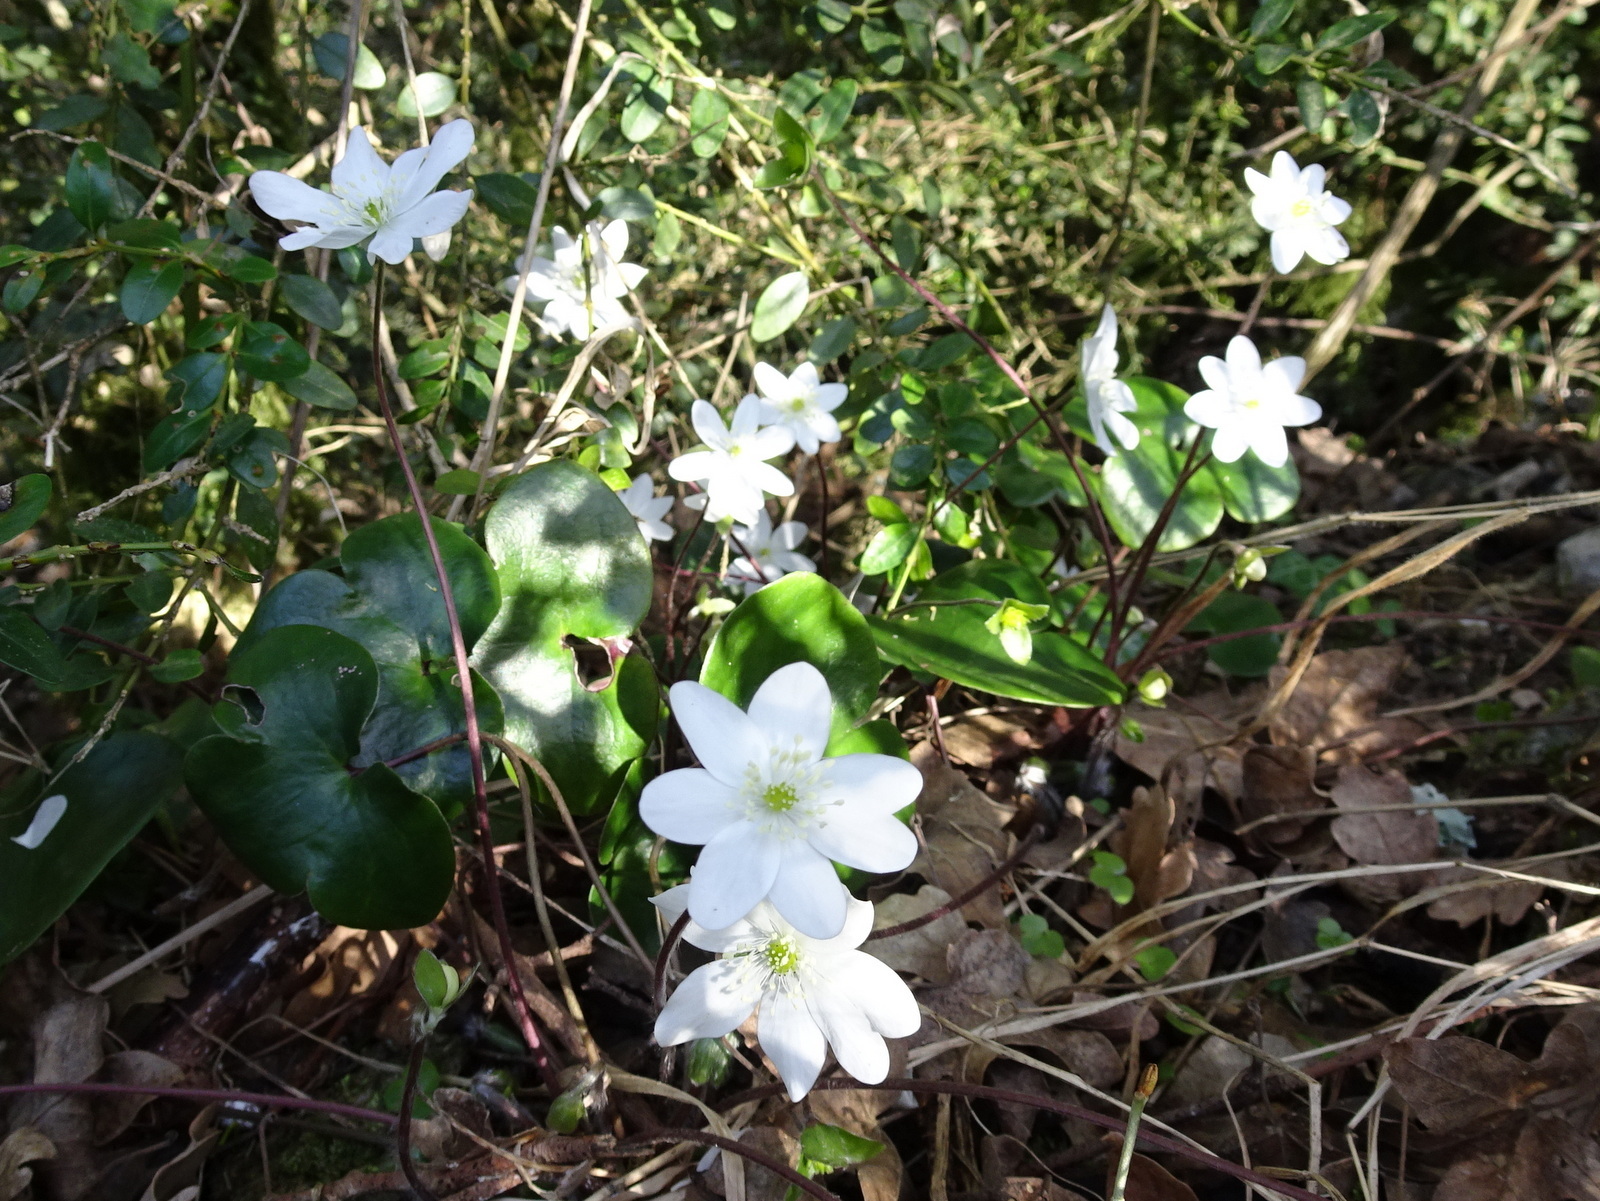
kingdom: Plantae
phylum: Tracheophyta
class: Magnoliopsida
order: Ranunculales
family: Ranunculaceae
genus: Hepatica
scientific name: Hepatica nobilis
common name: Liverleaf
